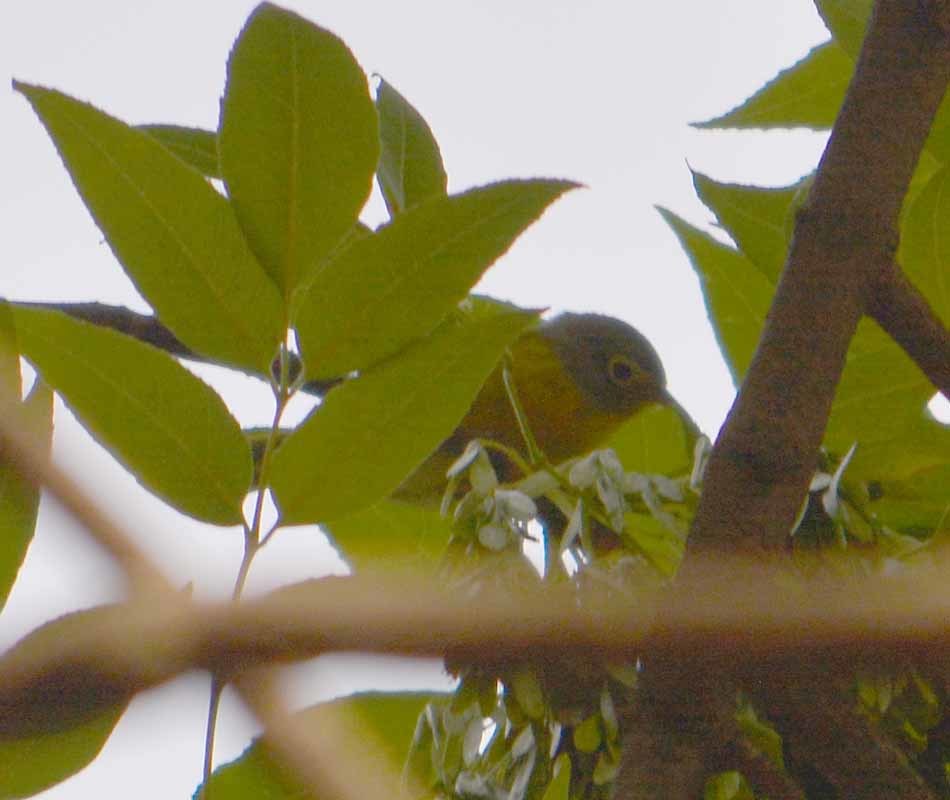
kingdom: Animalia
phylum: Chordata
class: Aves
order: Passeriformes
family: Parulidae
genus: Leiothlypis
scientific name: Leiothlypis ruficapilla
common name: Nashville warbler
